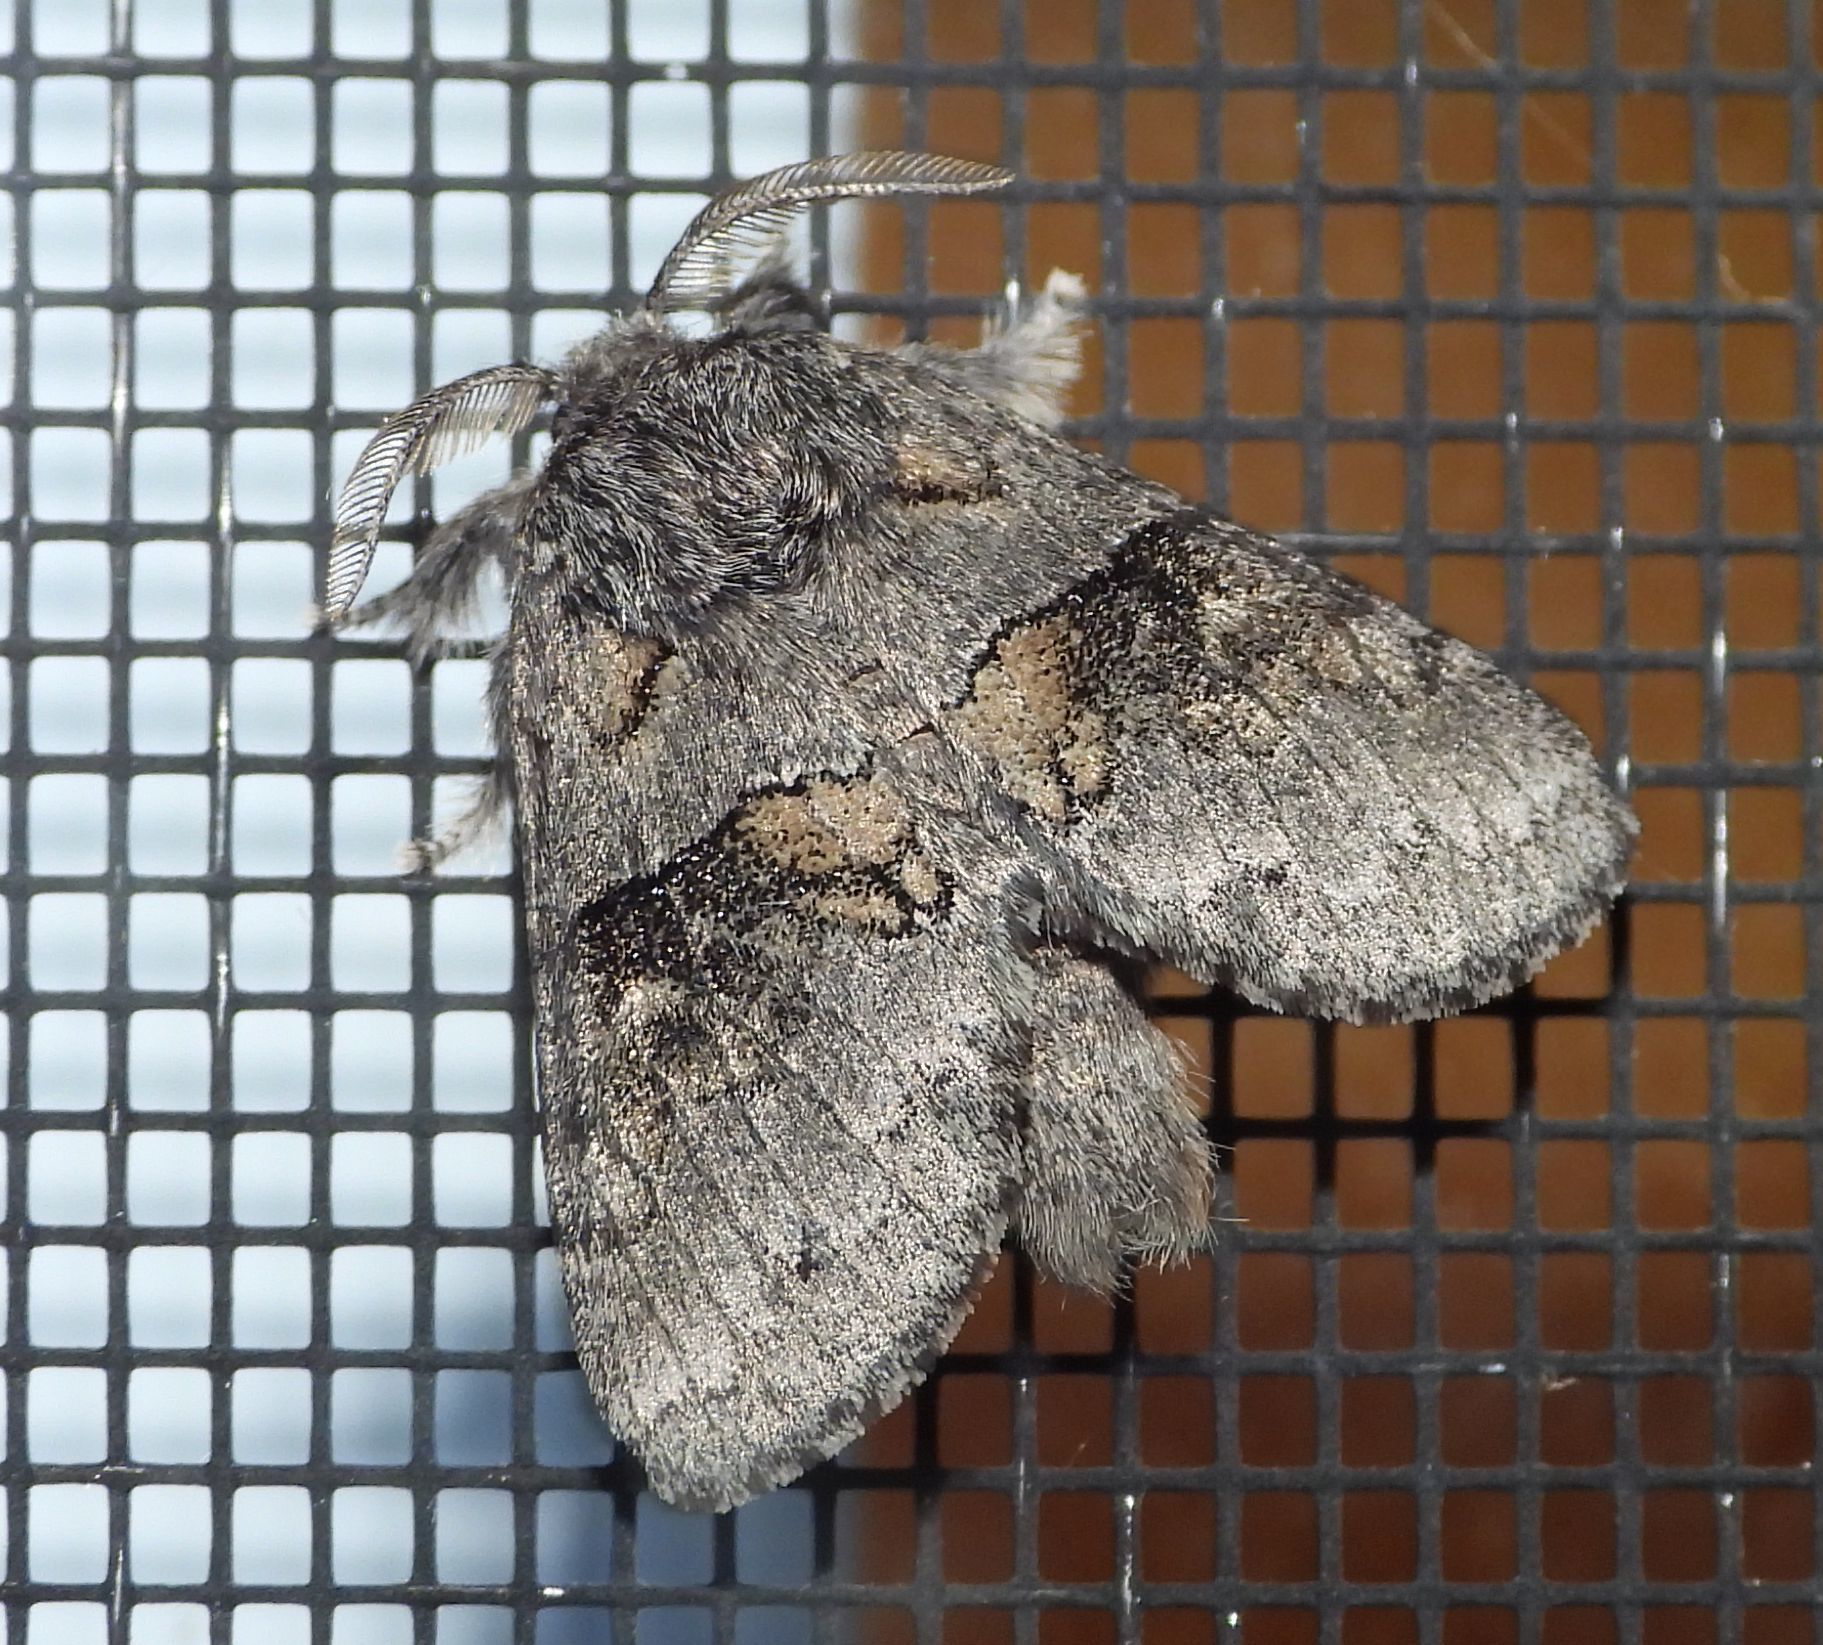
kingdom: Animalia
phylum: Arthropoda
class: Insecta
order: Lepidoptera
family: Notodontidae
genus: Gluphisia
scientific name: Gluphisia septentrionis
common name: Common gluphisia
